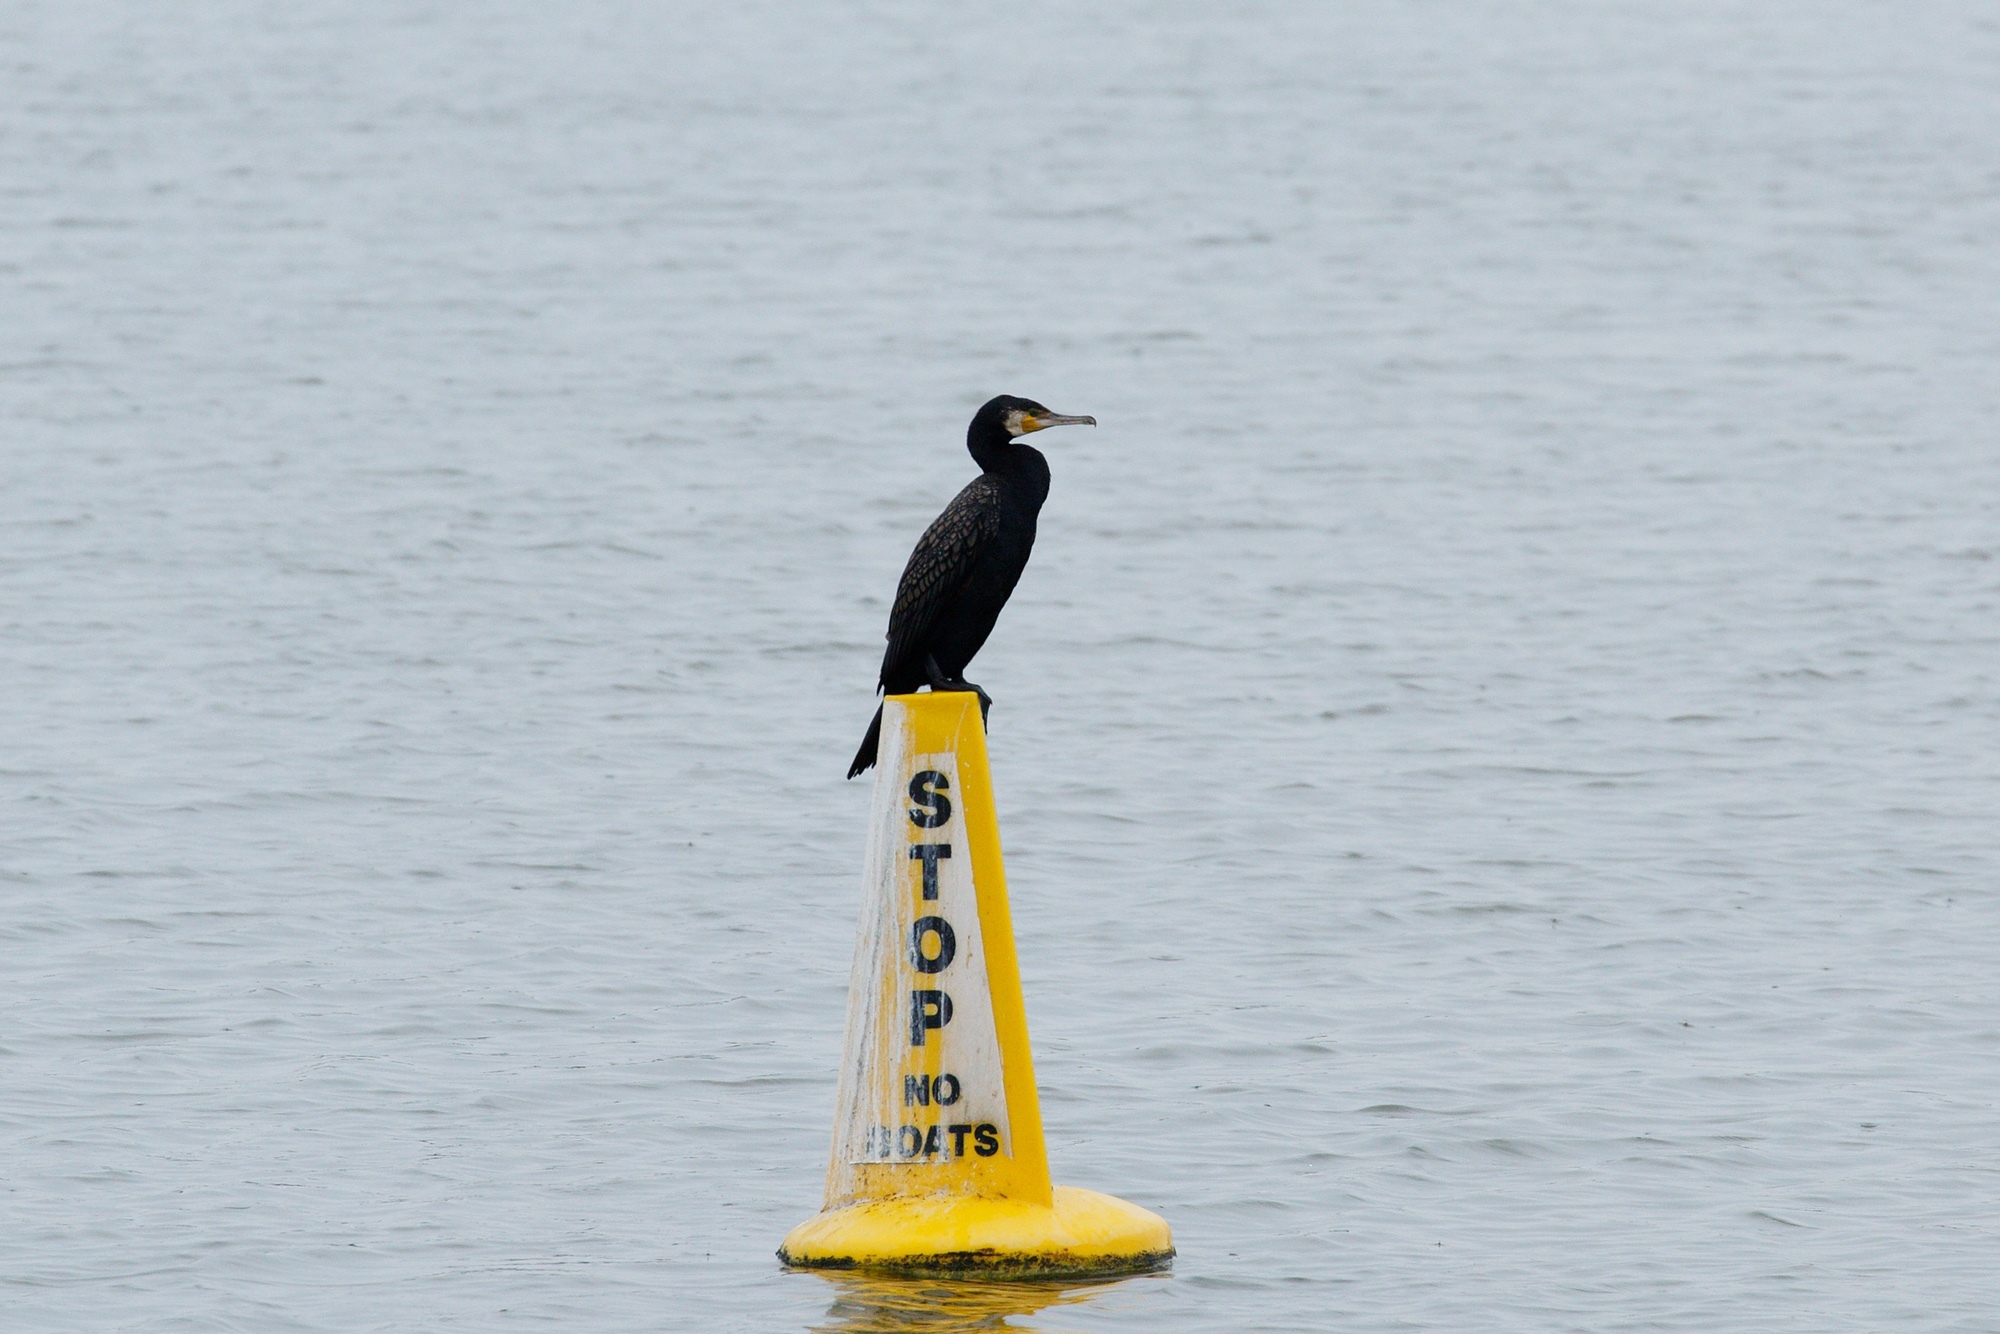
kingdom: Animalia
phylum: Chordata
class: Aves
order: Suliformes
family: Phalacrocoracidae
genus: Phalacrocorax
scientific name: Phalacrocorax carbo
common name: Great cormorant
